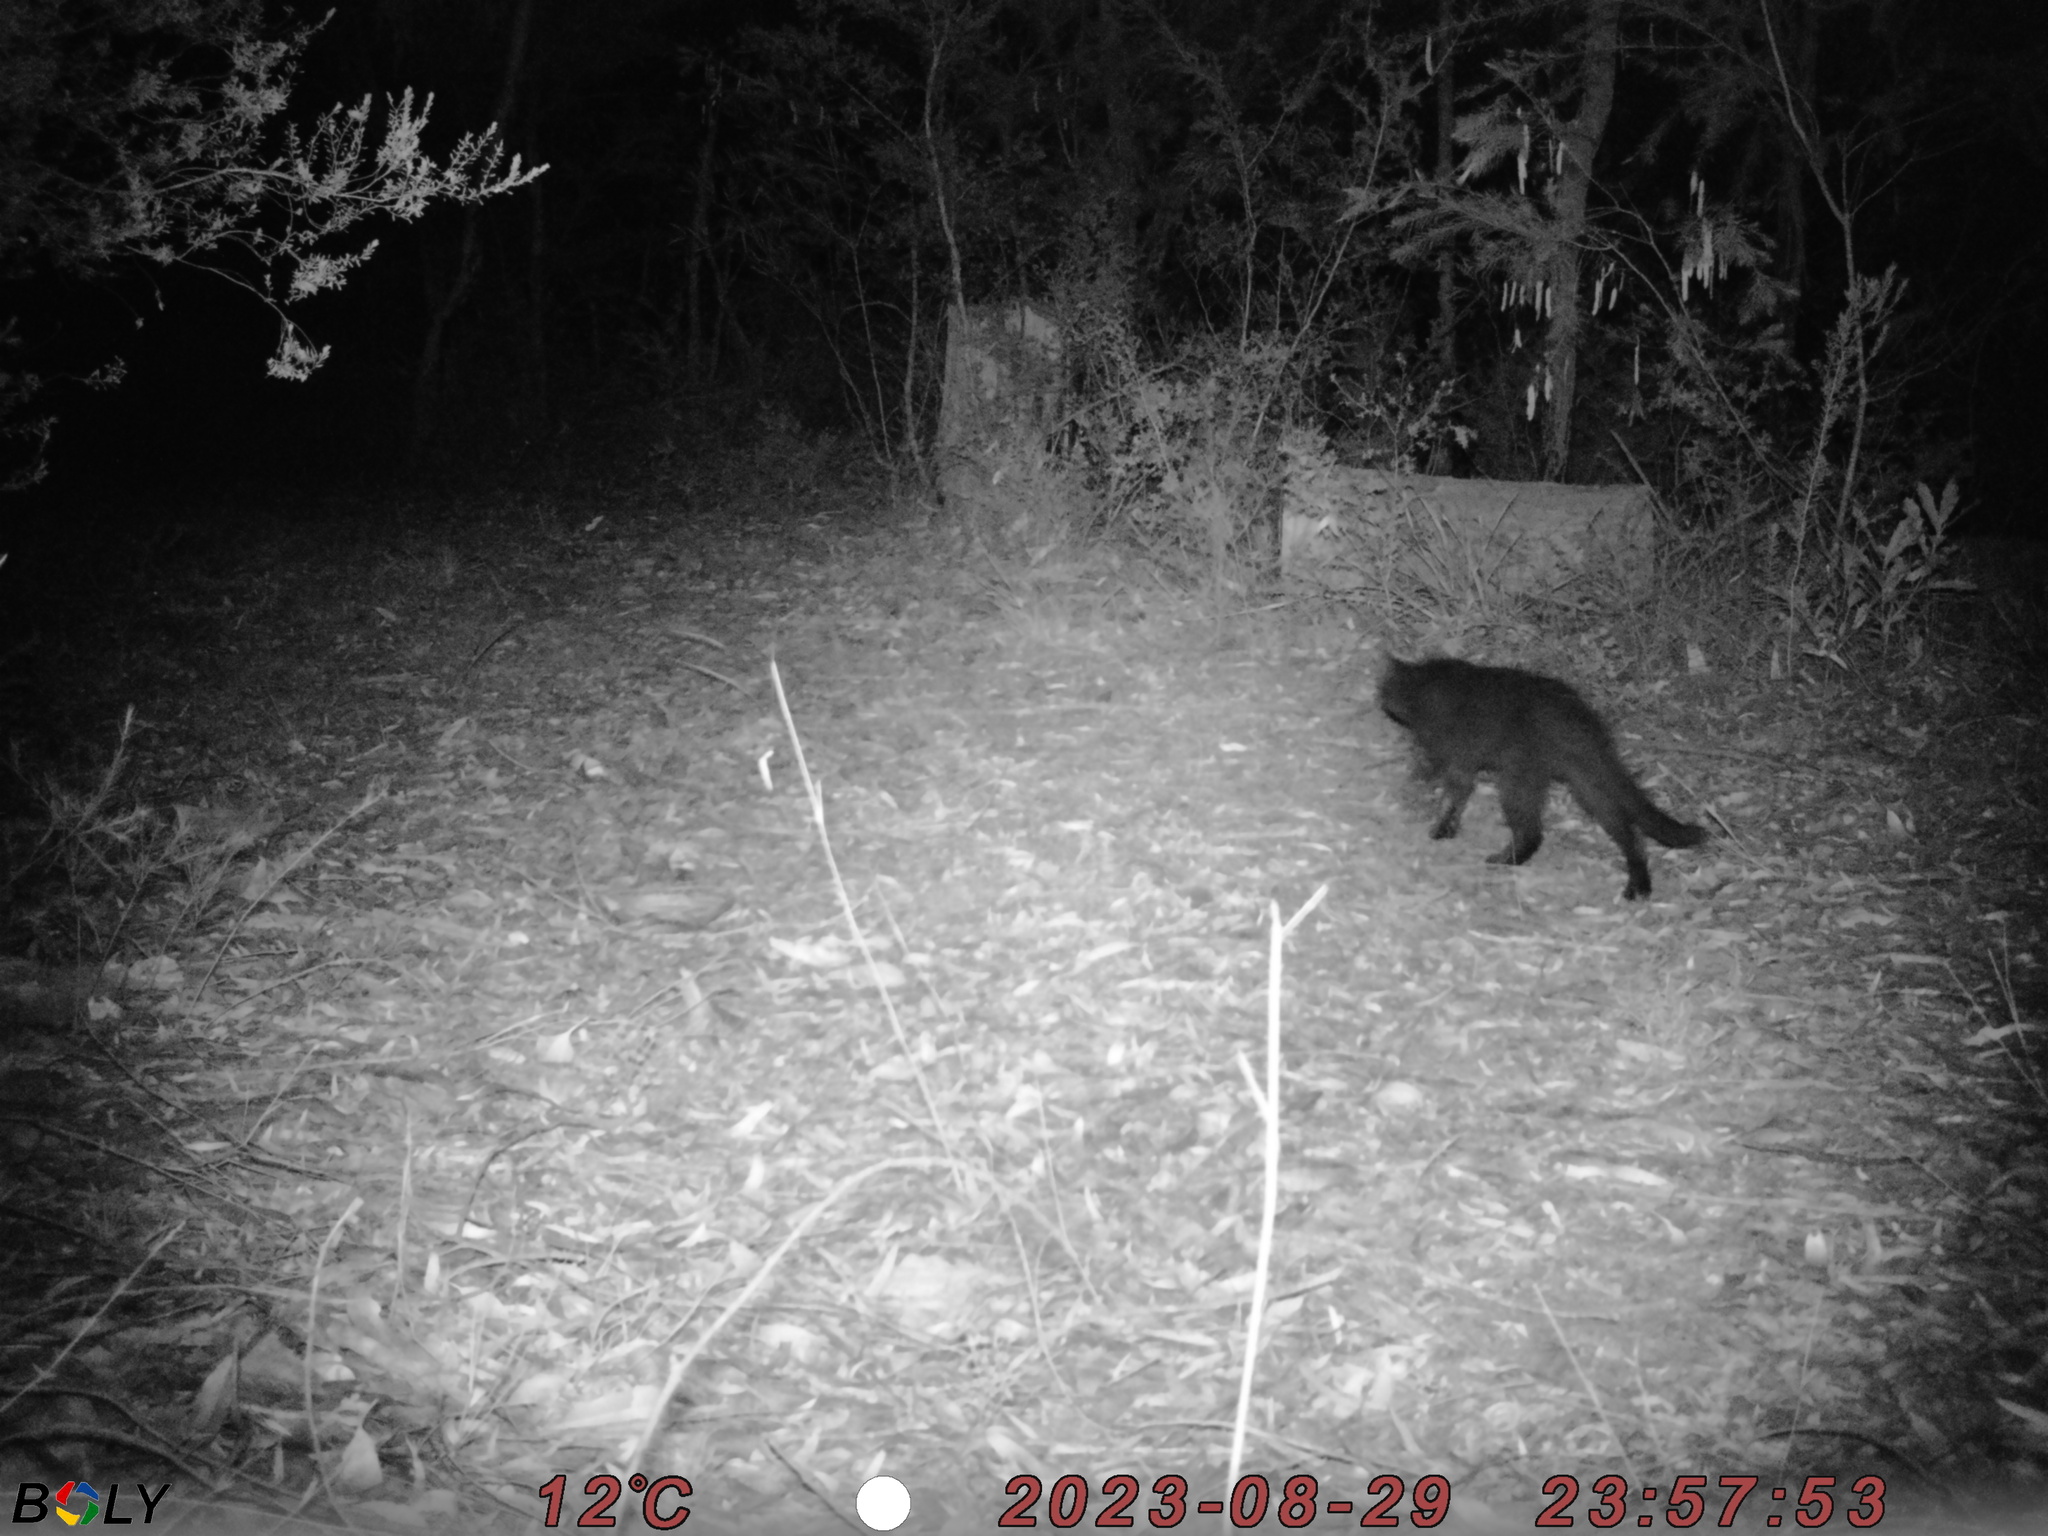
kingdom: Animalia
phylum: Chordata
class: Mammalia
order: Carnivora
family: Felidae
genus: Felis
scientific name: Felis catus
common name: Domestic cat
